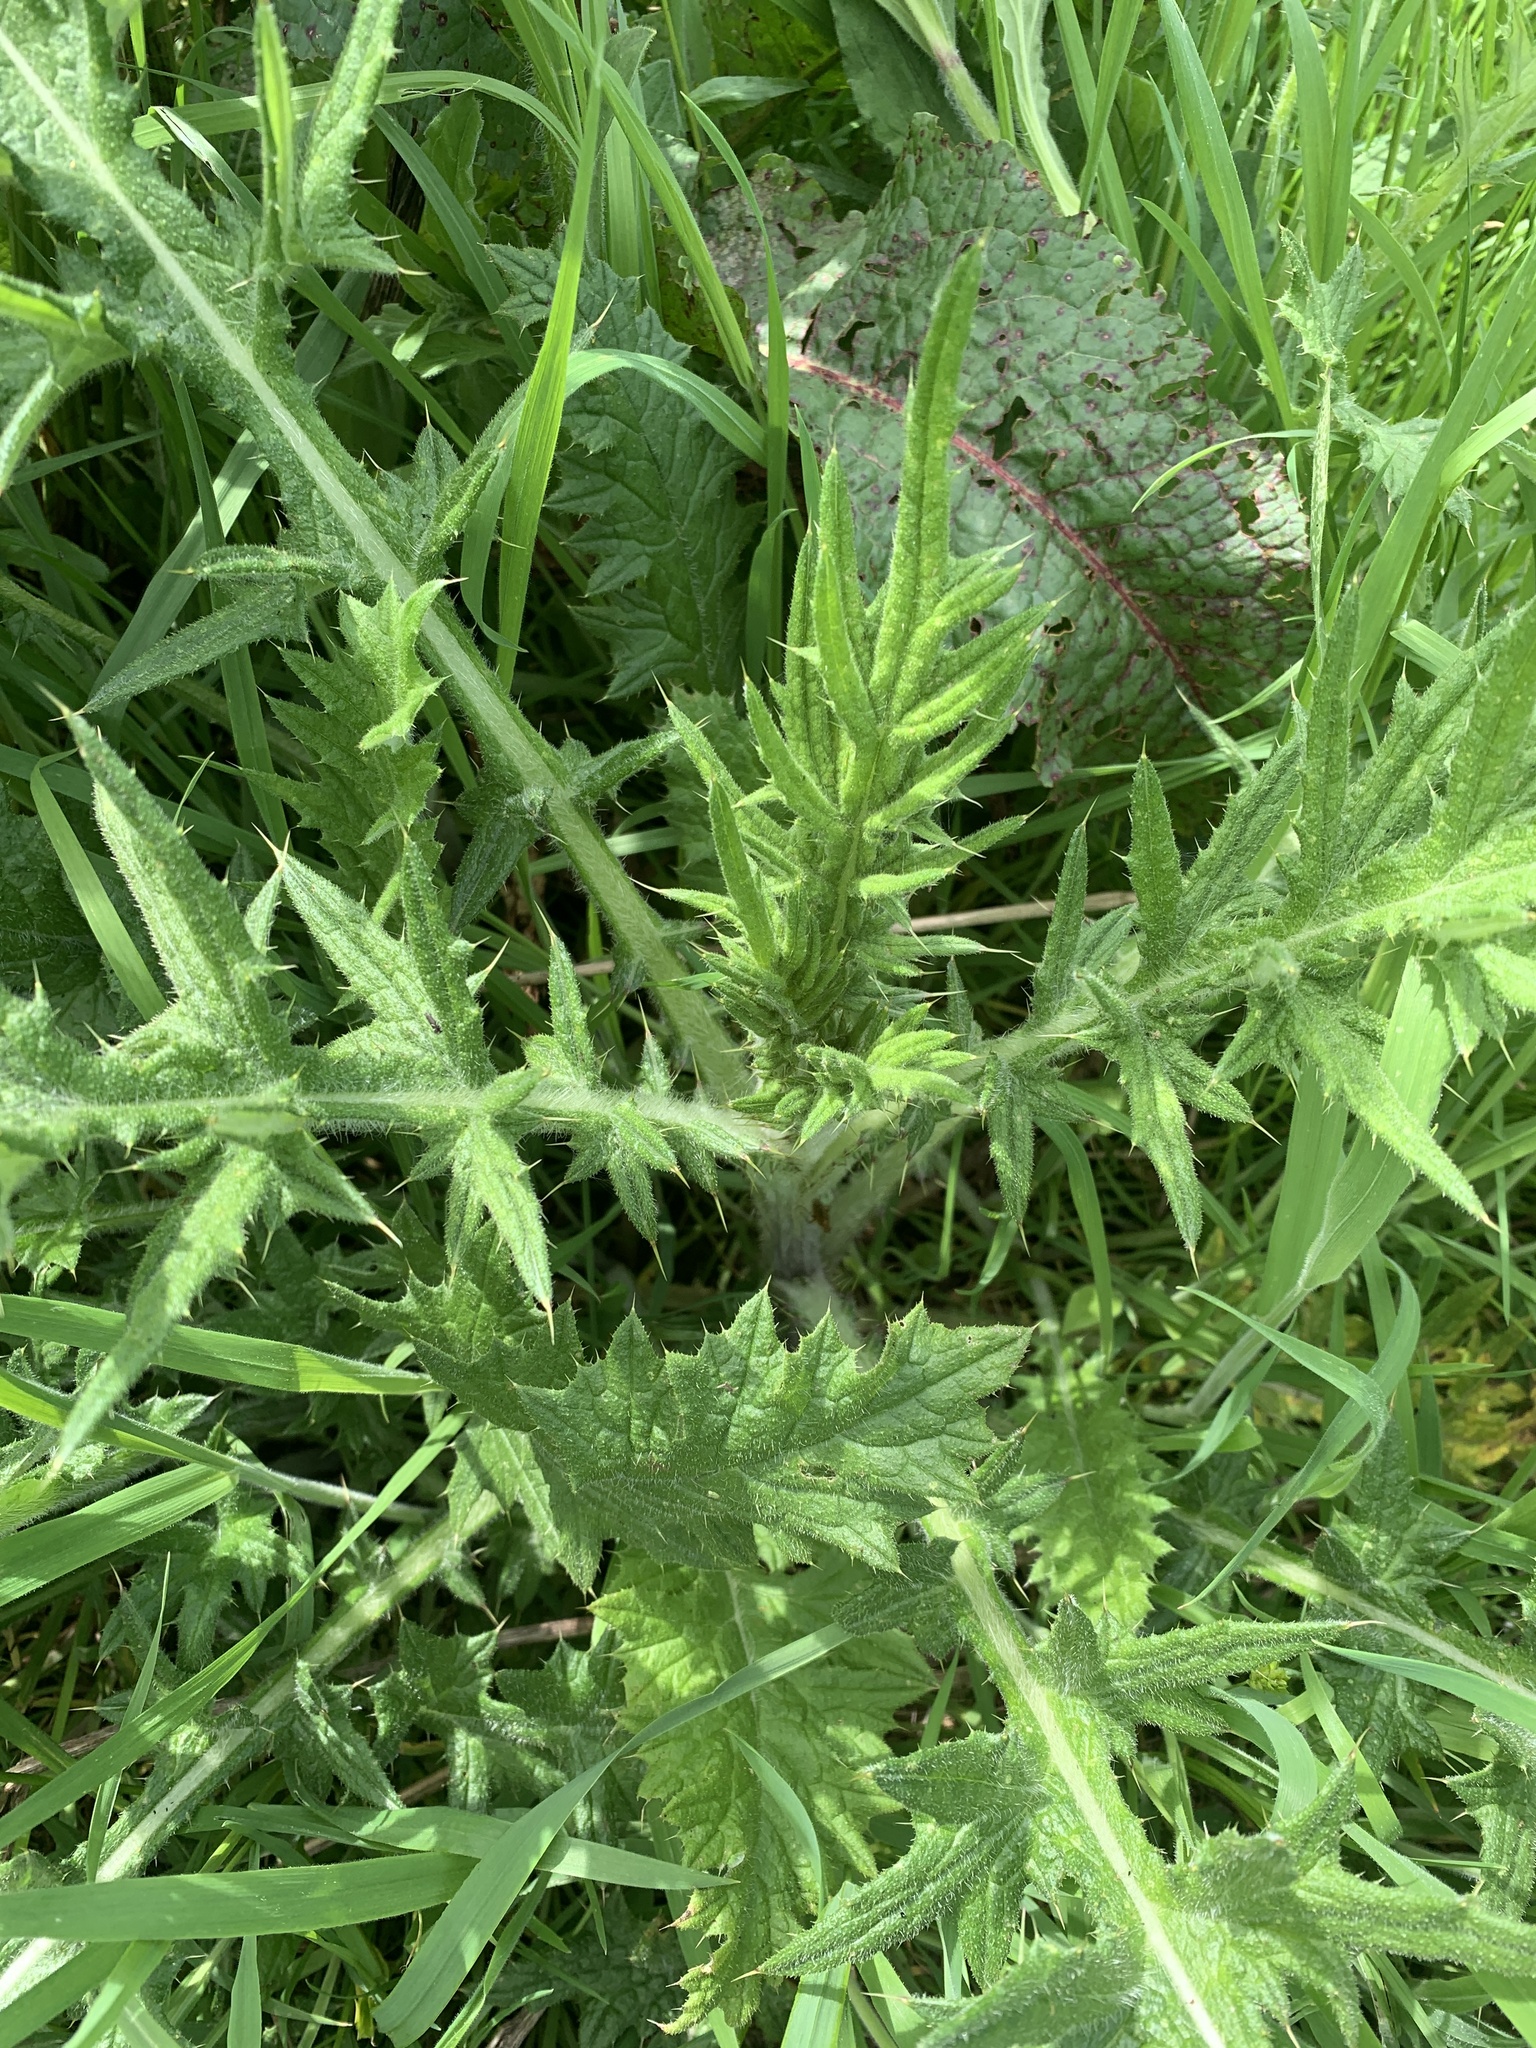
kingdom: Plantae
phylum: Tracheophyta
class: Magnoliopsida
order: Asterales
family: Asteraceae
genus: Cirsium
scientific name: Cirsium vulgare
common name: Bull thistle
